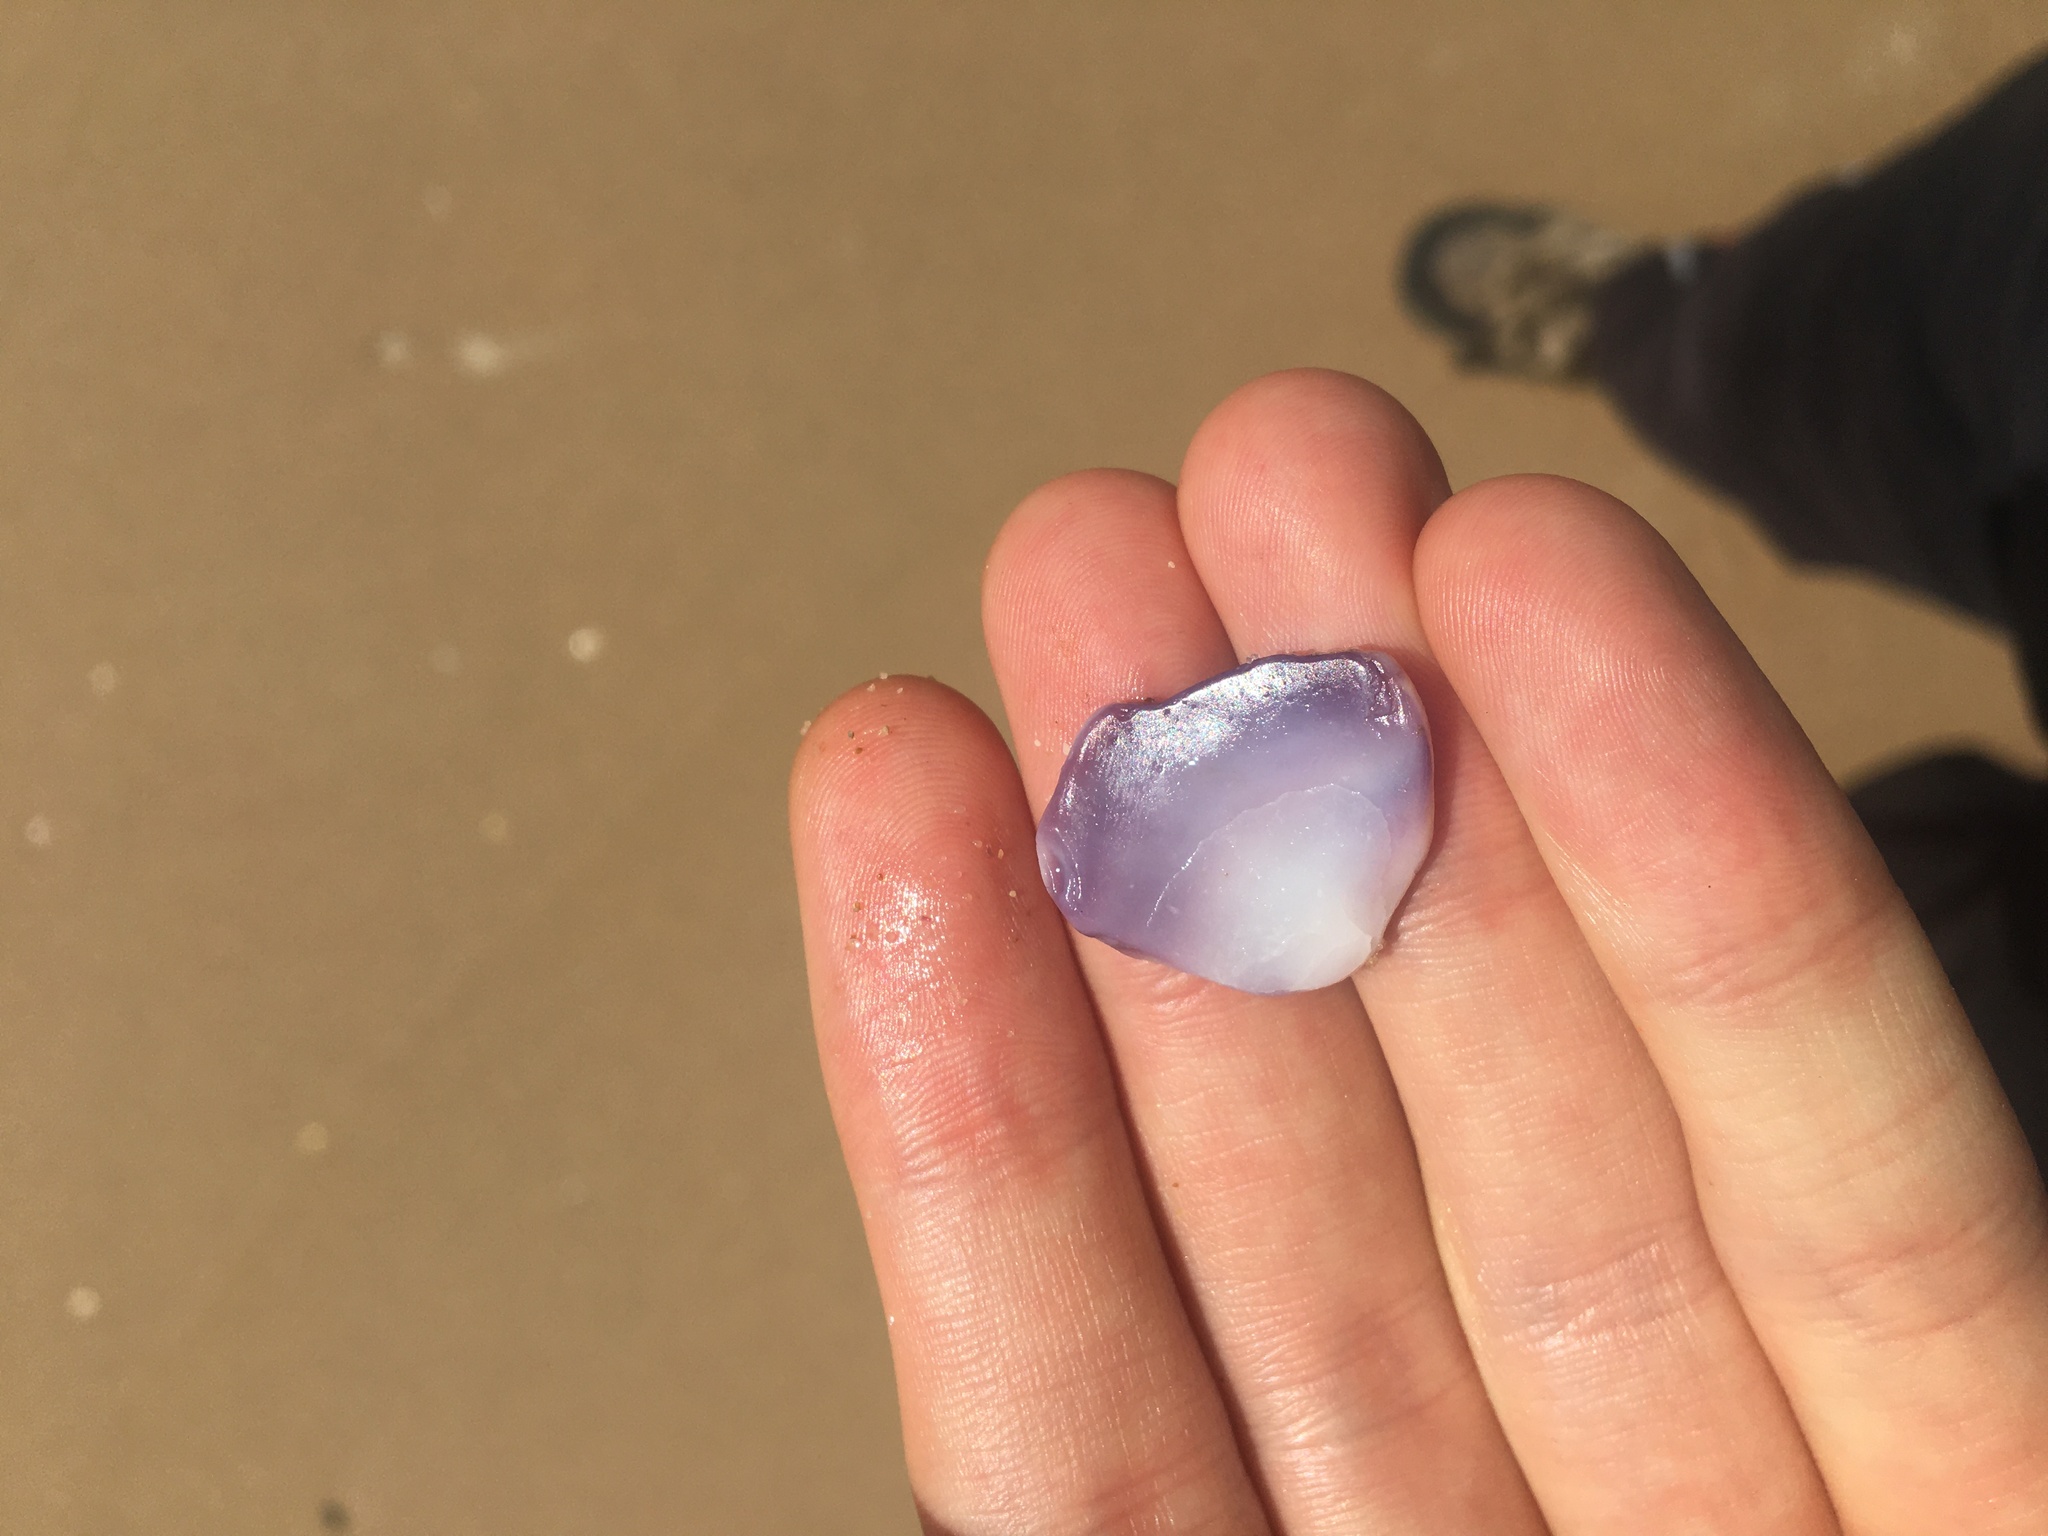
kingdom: Animalia
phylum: Mollusca
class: Bivalvia
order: Cardiida
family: Donacidae
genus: Latona
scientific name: Latona deltoides
